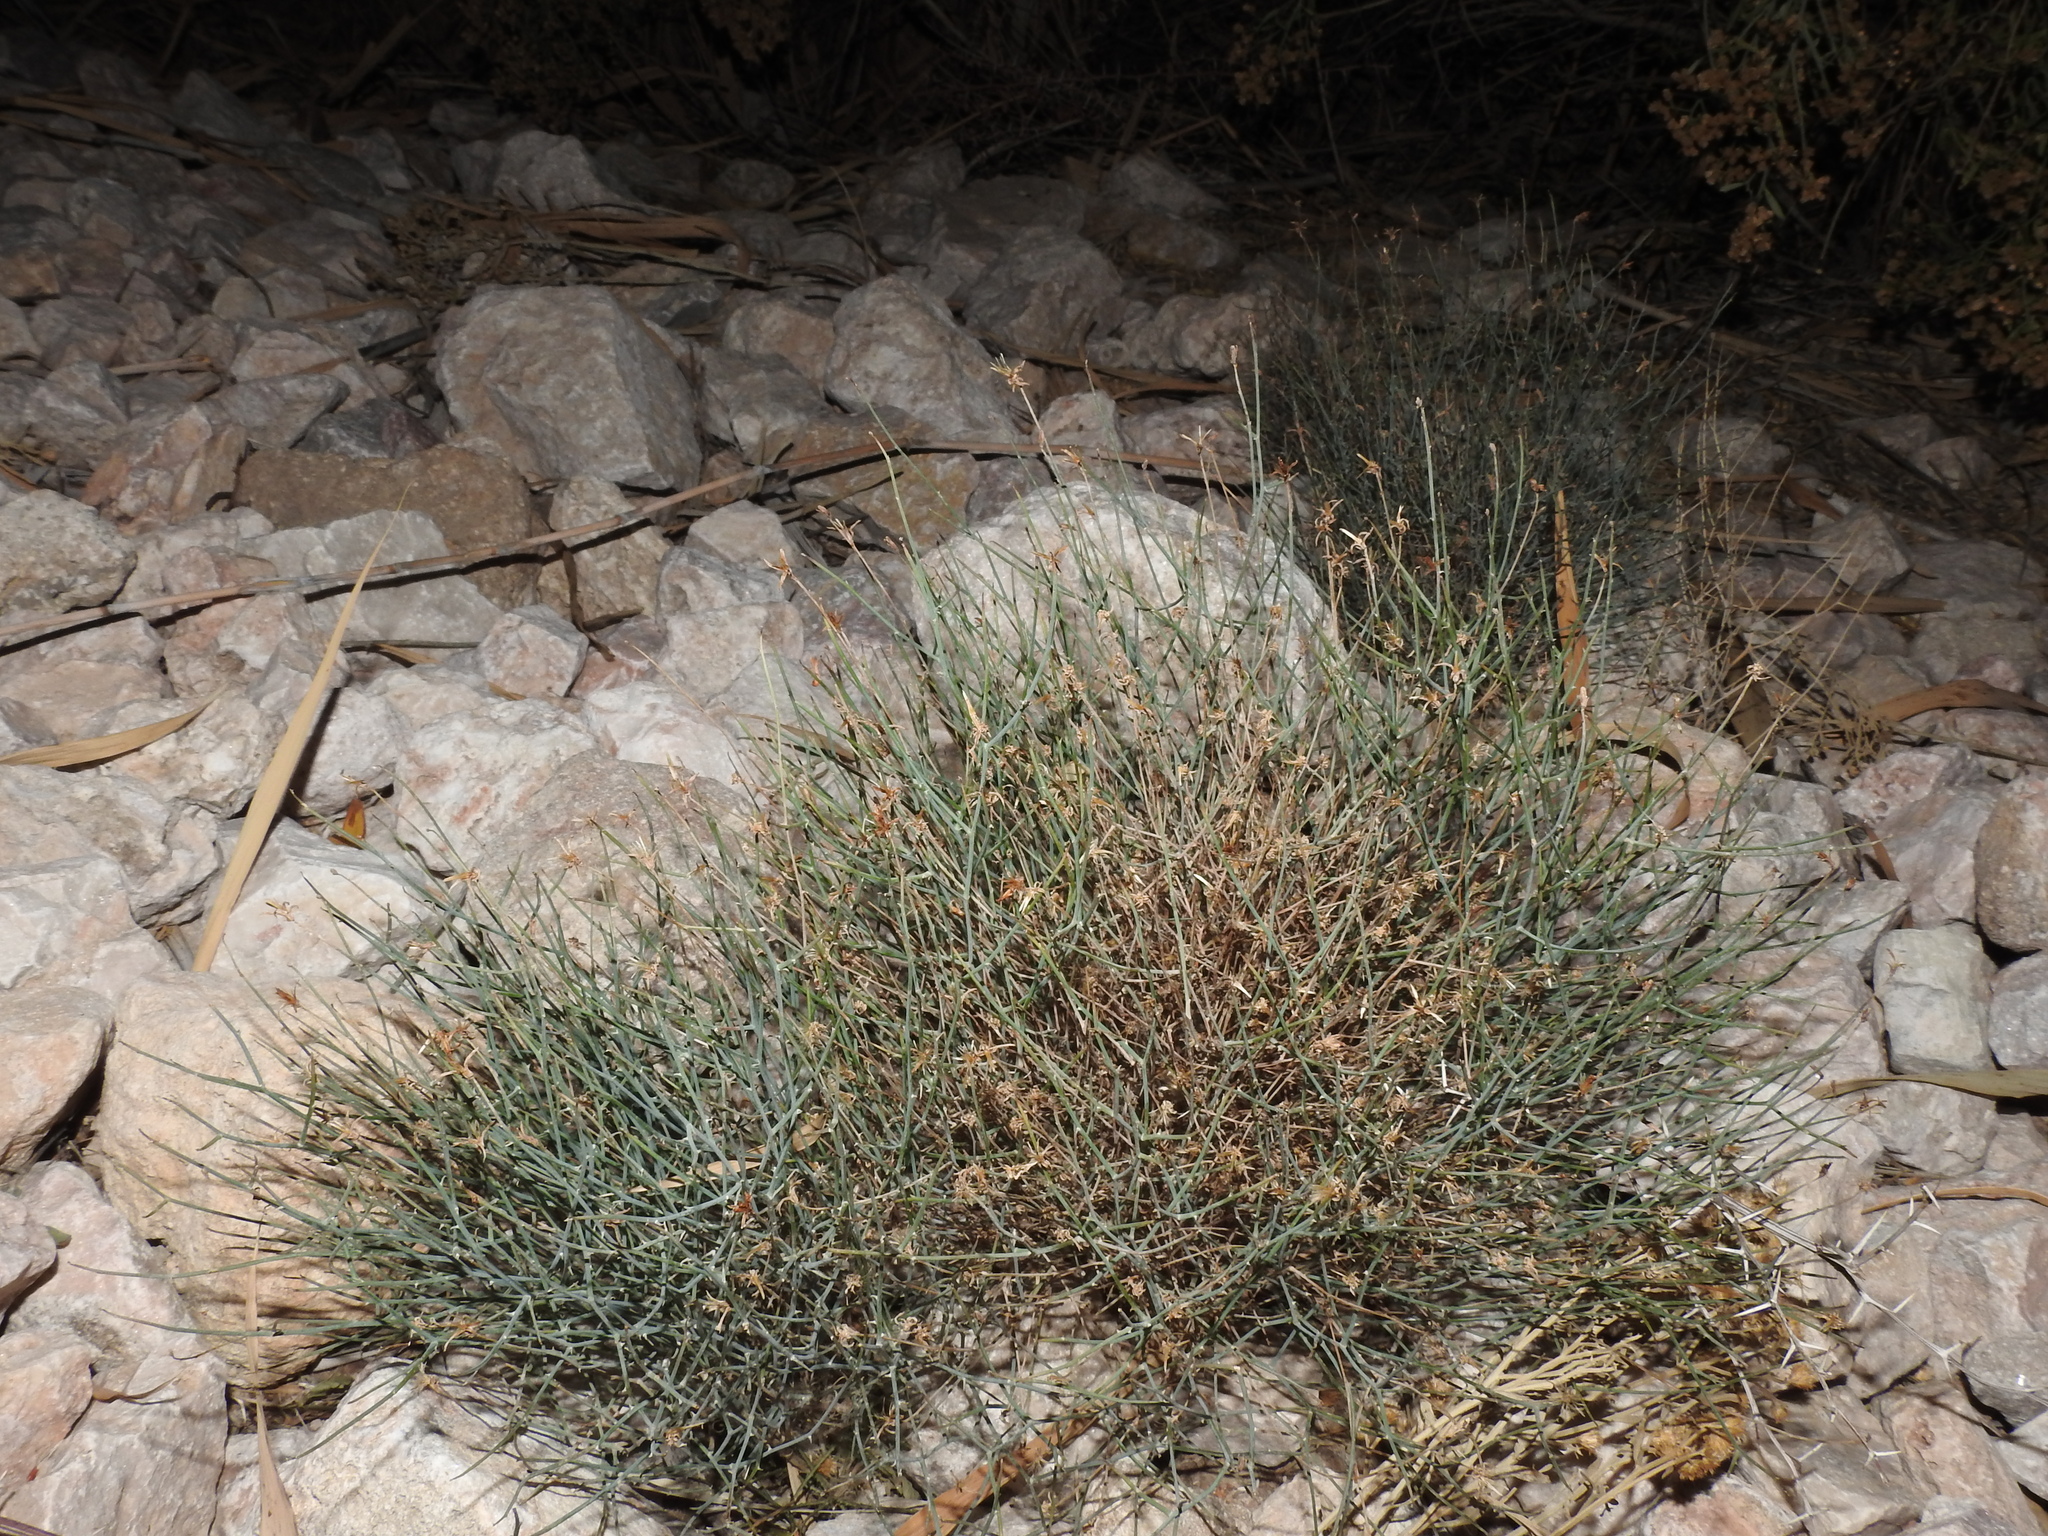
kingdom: Plantae
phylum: Tracheophyta
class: Magnoliopsida
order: Asterales
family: Asteraceae
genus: Stephanomeria
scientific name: Stephanomeria pauciflora
